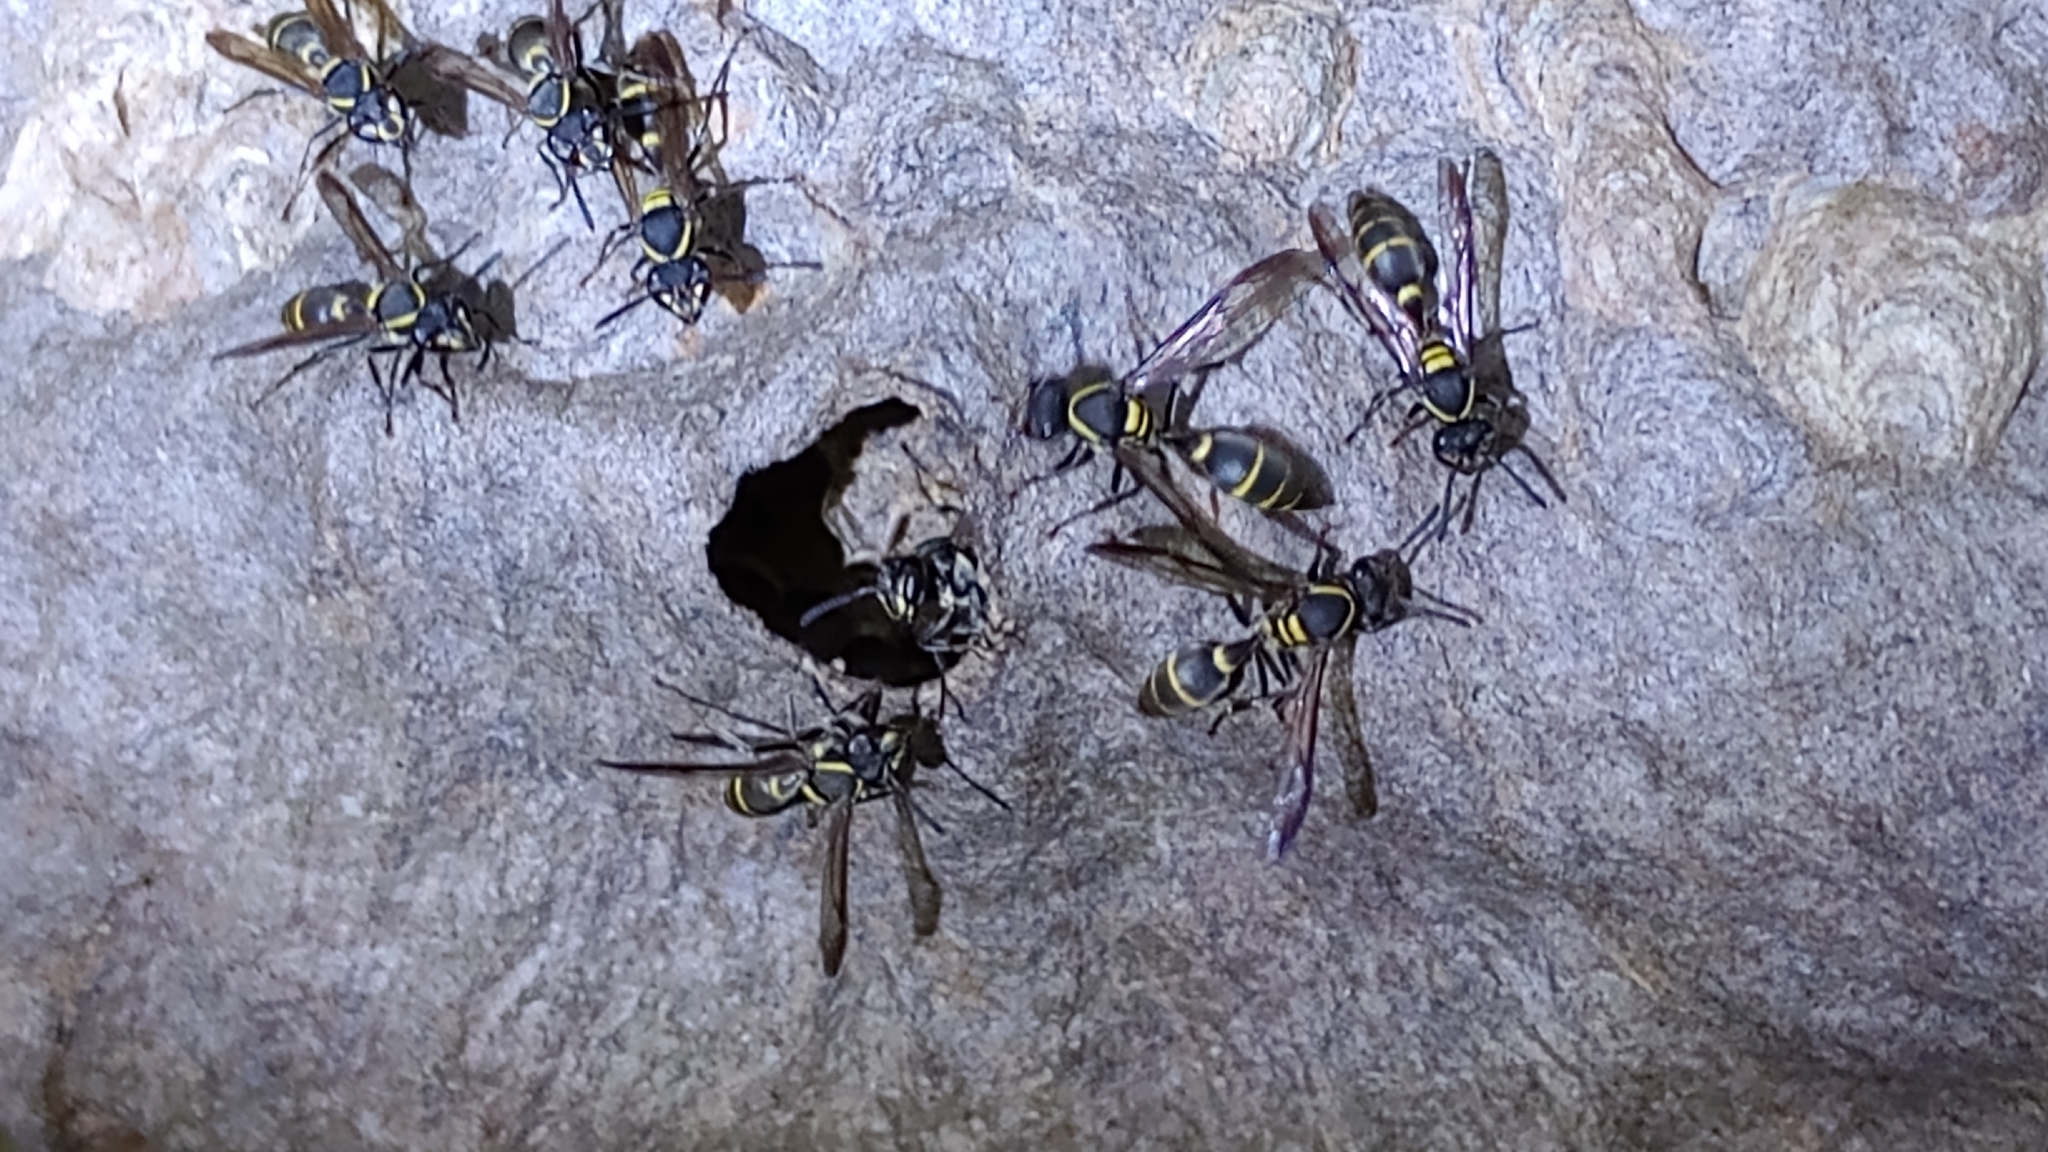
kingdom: Animalia
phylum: Arthropoda
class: Insecta
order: Hymenoptera
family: Eumenidae
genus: Polybia
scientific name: Polybia occidentalis
